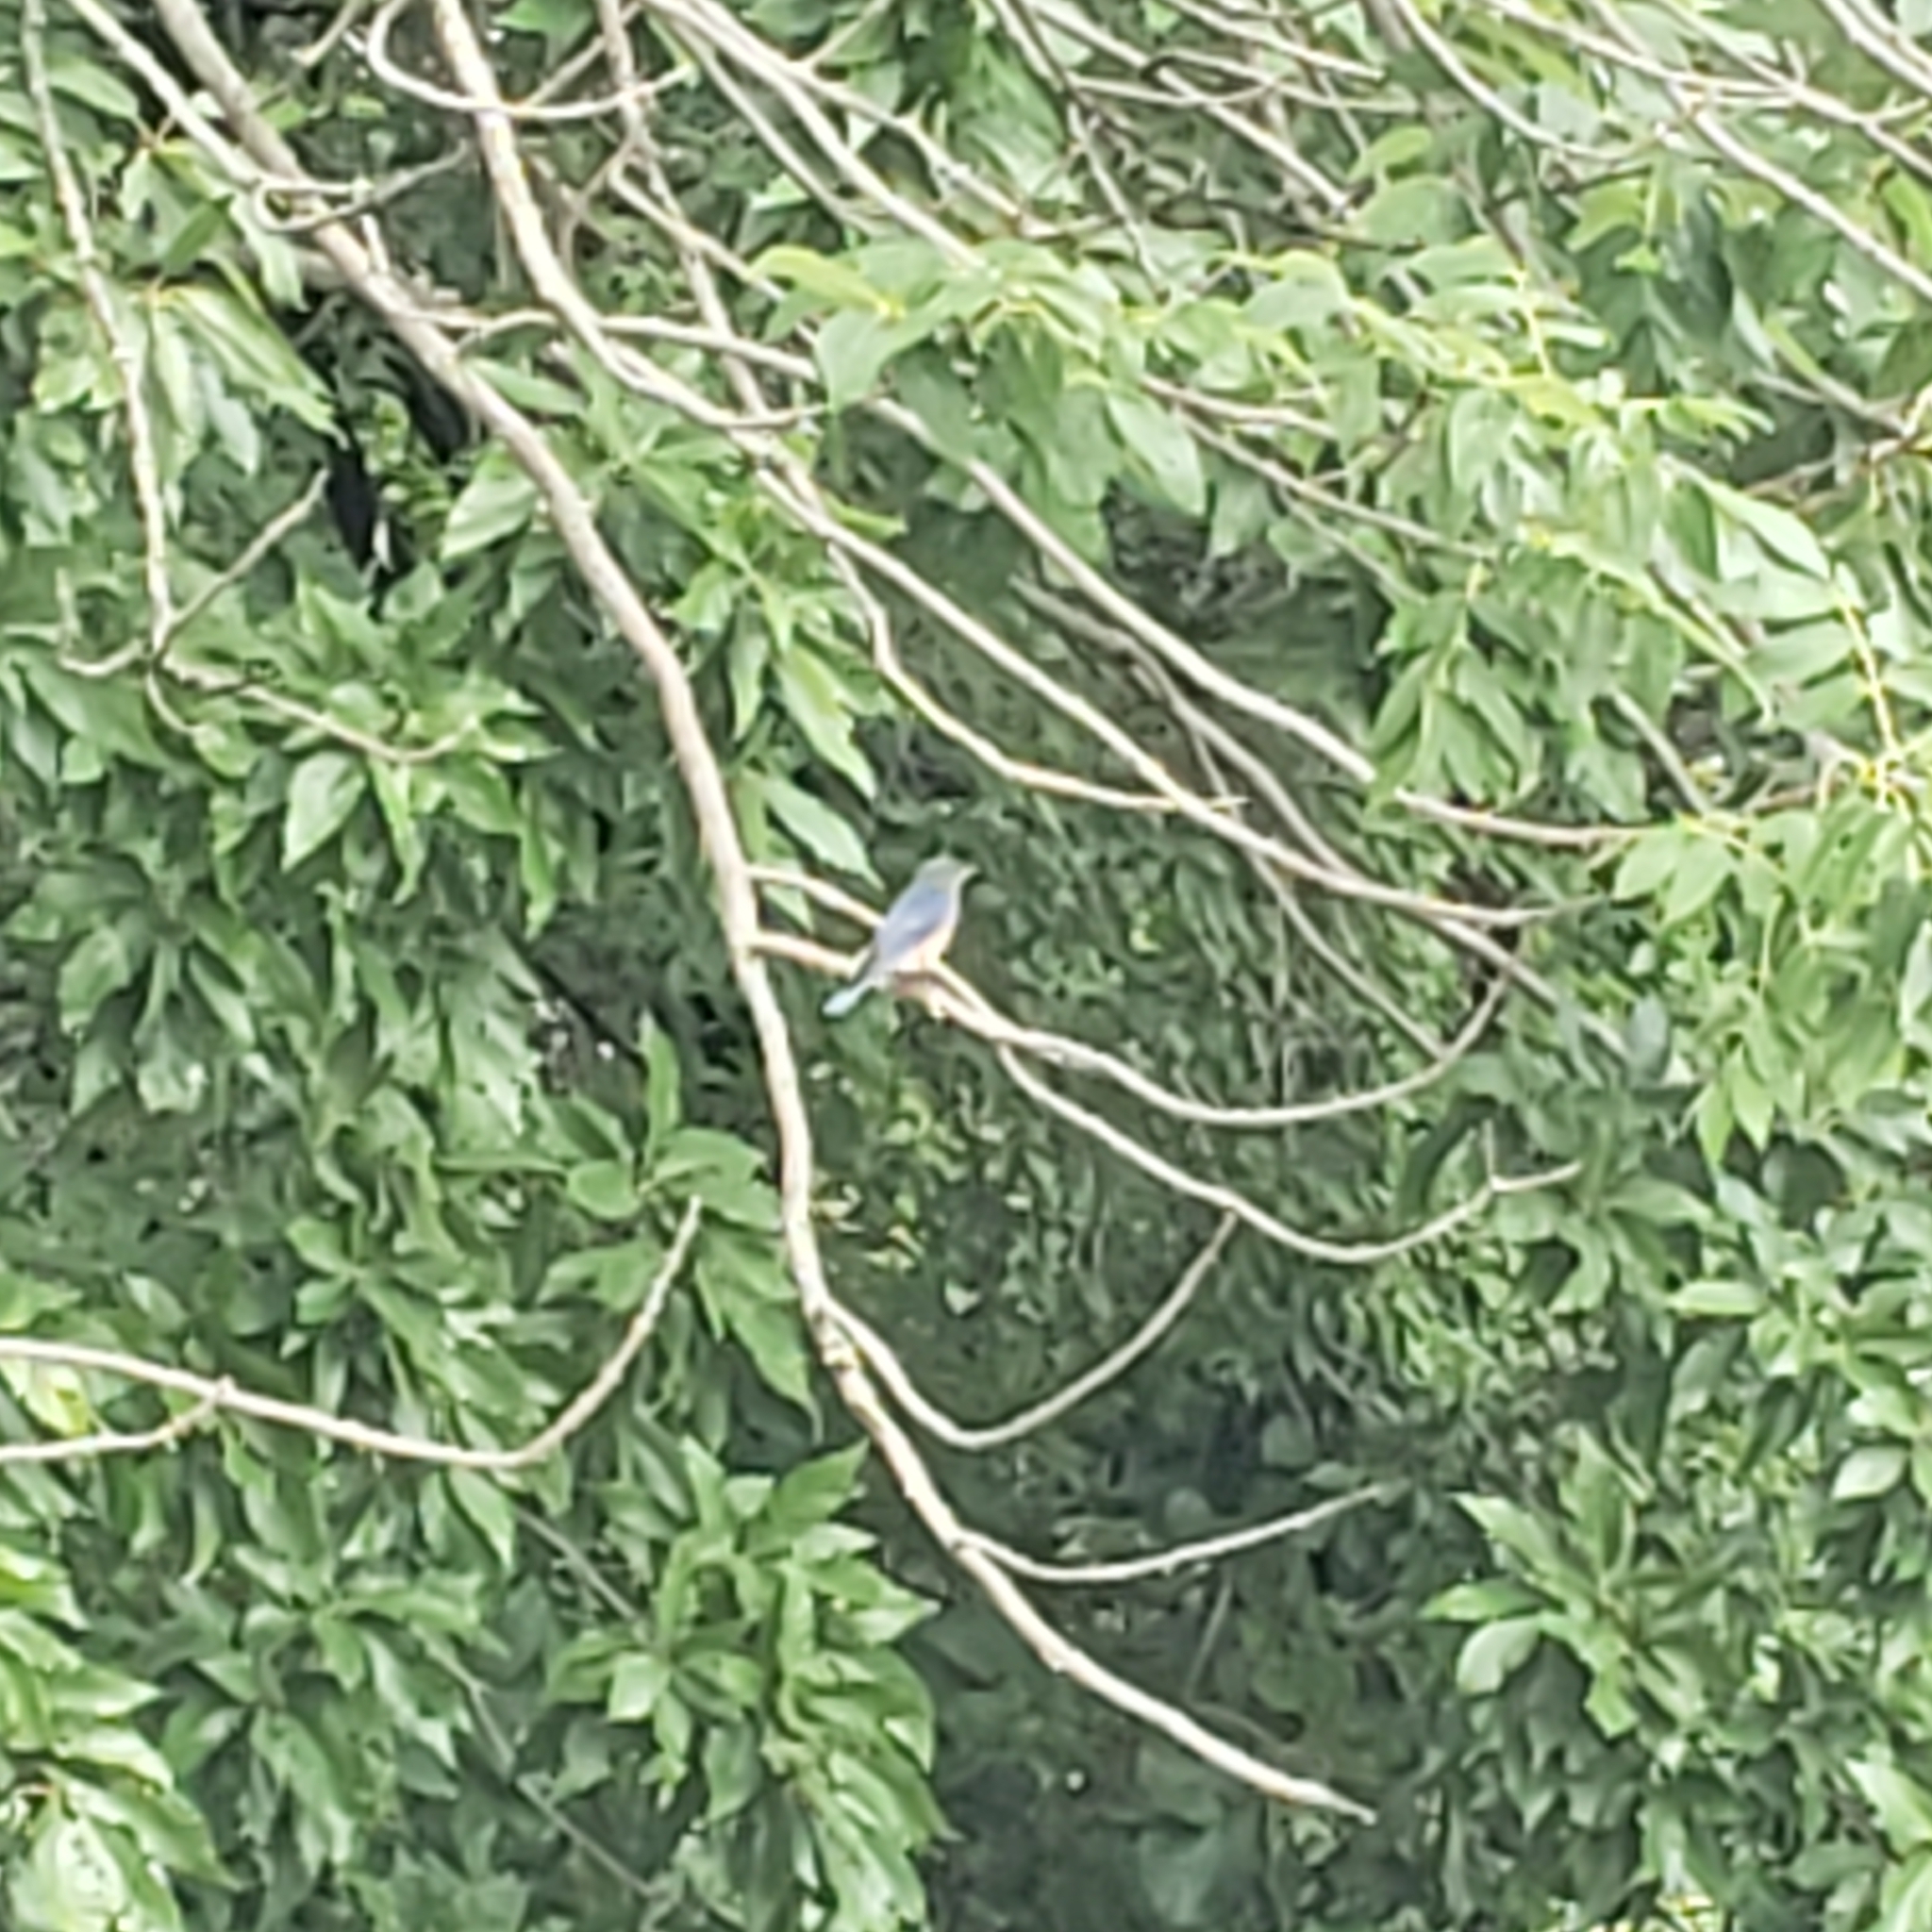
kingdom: Animalia
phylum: Chordata
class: Aves
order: Passeriformes
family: Turdidae
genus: Sialia
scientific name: Sialia sialis
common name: Eastern bluebird
